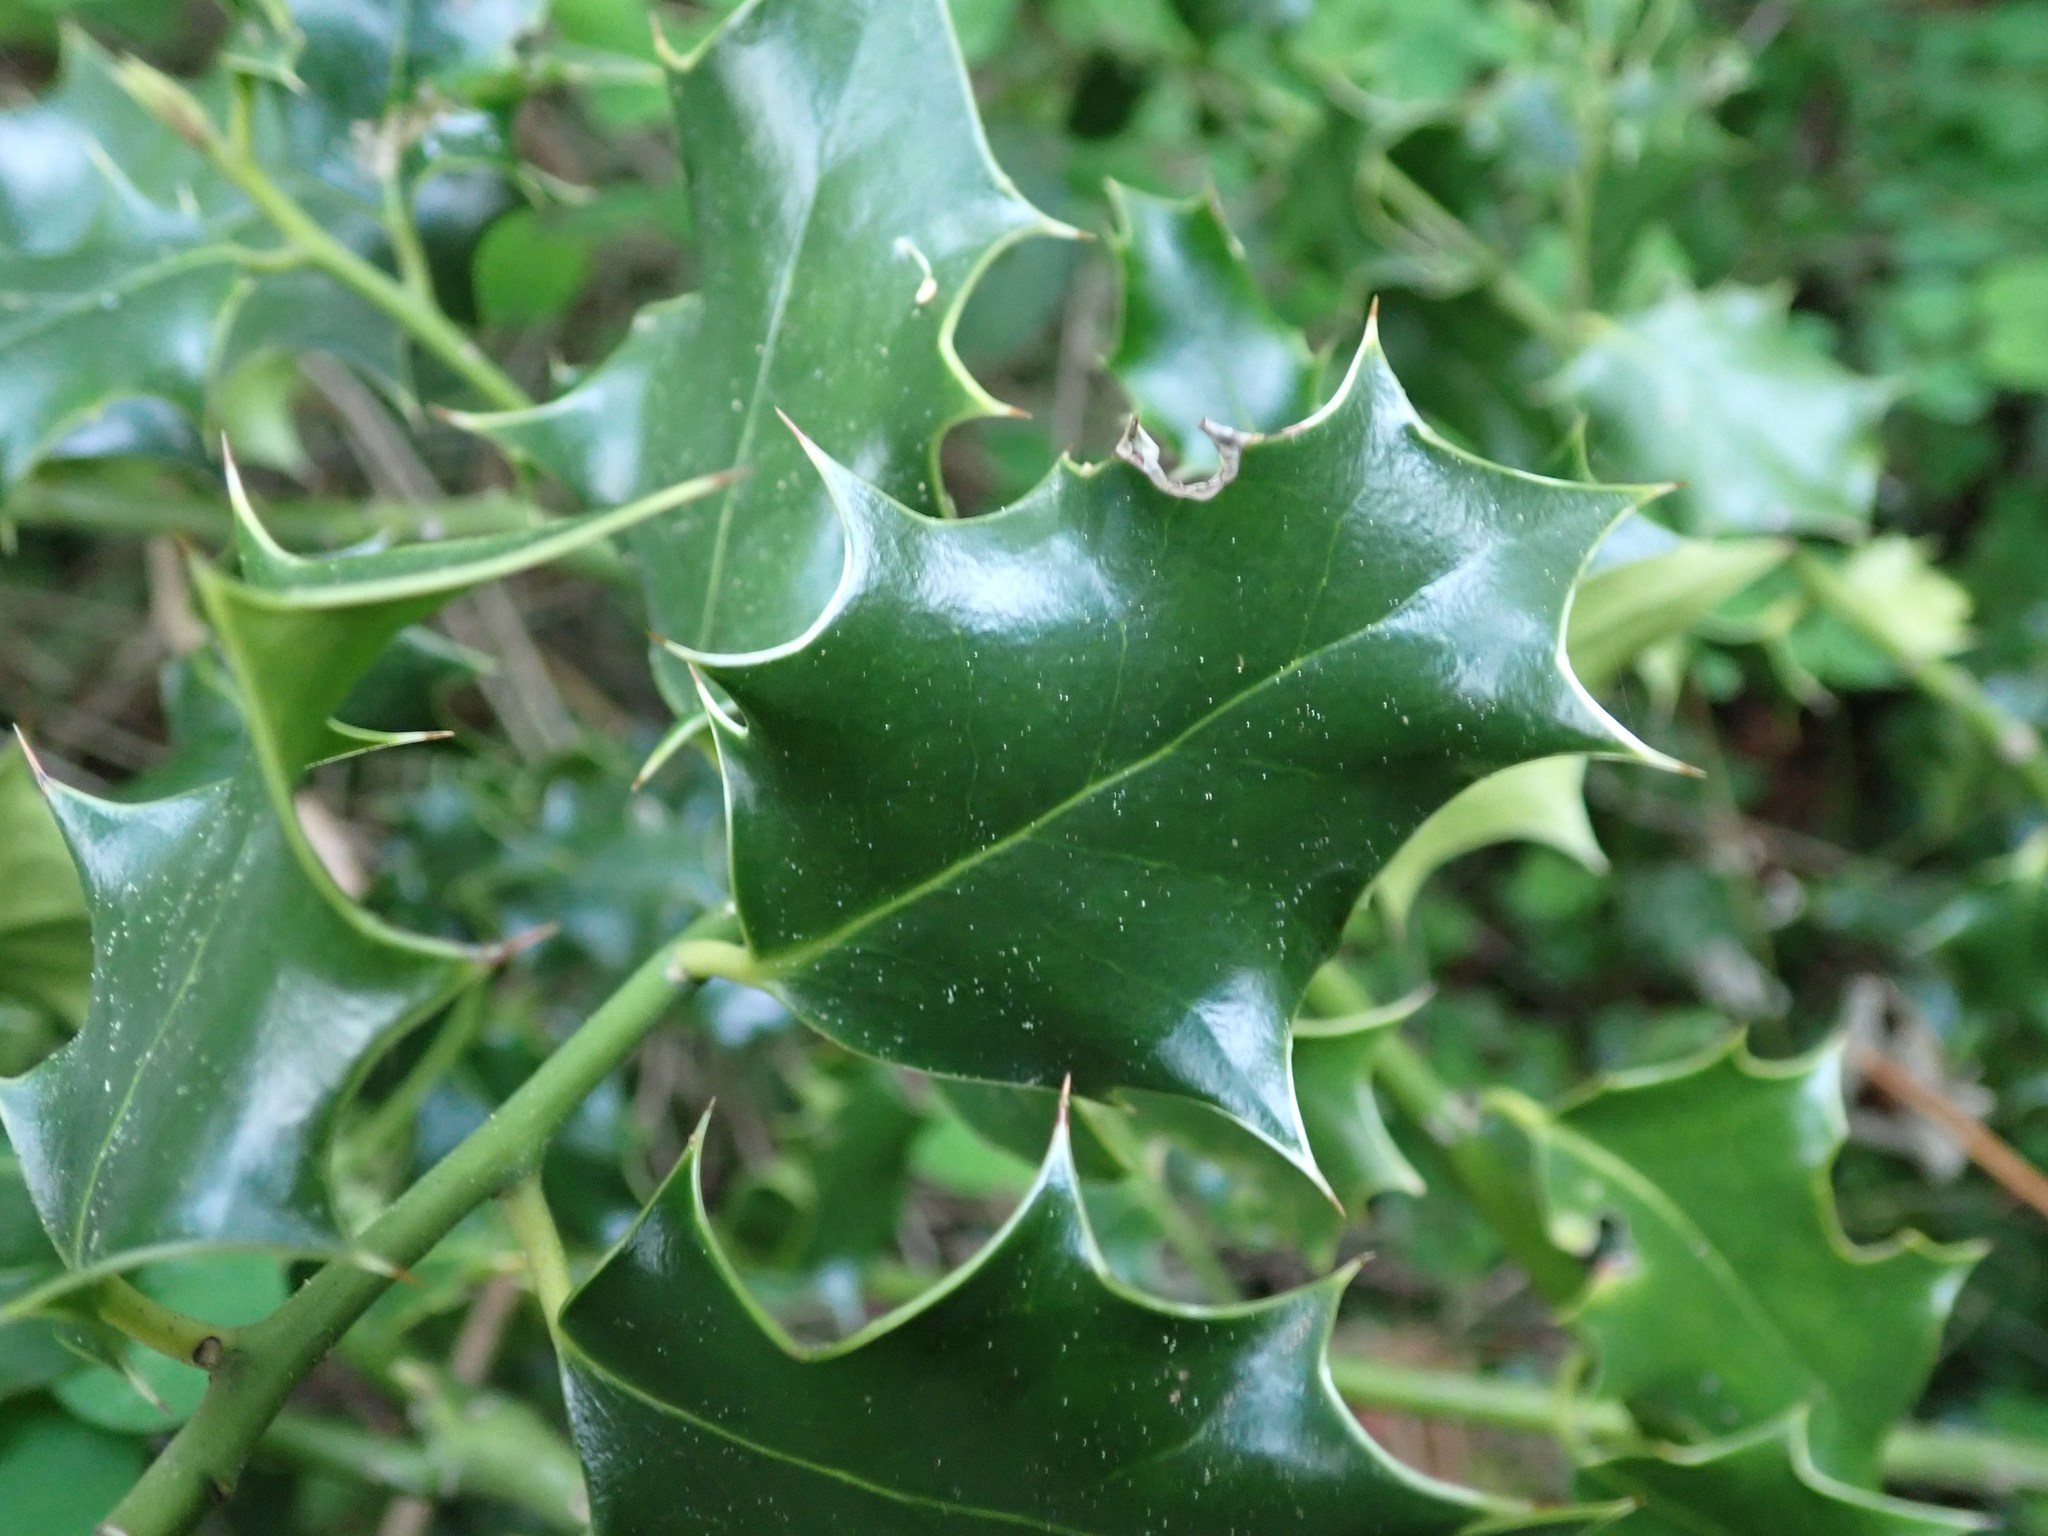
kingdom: Plantae
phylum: Tracheophyta
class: Magnoliopsida
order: Aquifoliales
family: Aquifoliaceae
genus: Ilex
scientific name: Ilex aquifolium
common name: English holly
